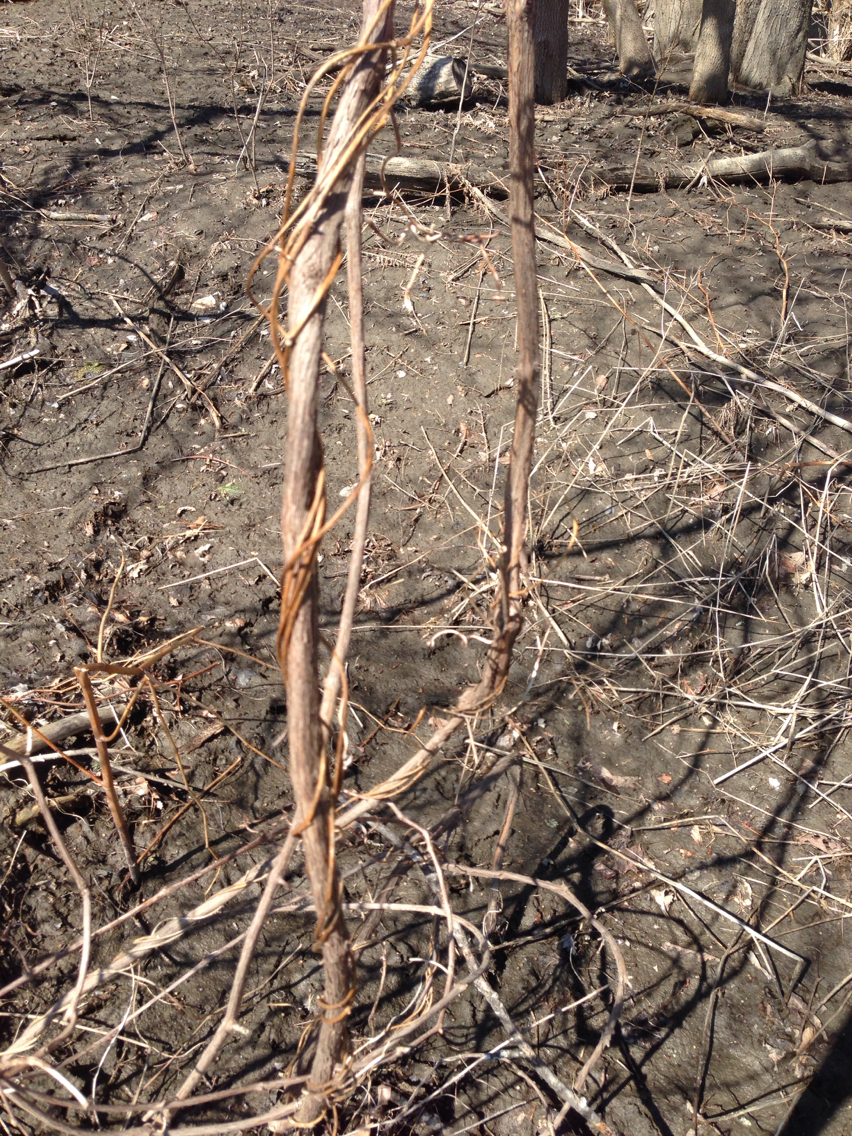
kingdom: Plantae
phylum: Tracheophyta
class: Magnoliopsida
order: Vitales
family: Vitaceae
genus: Vitis
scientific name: Vitis
